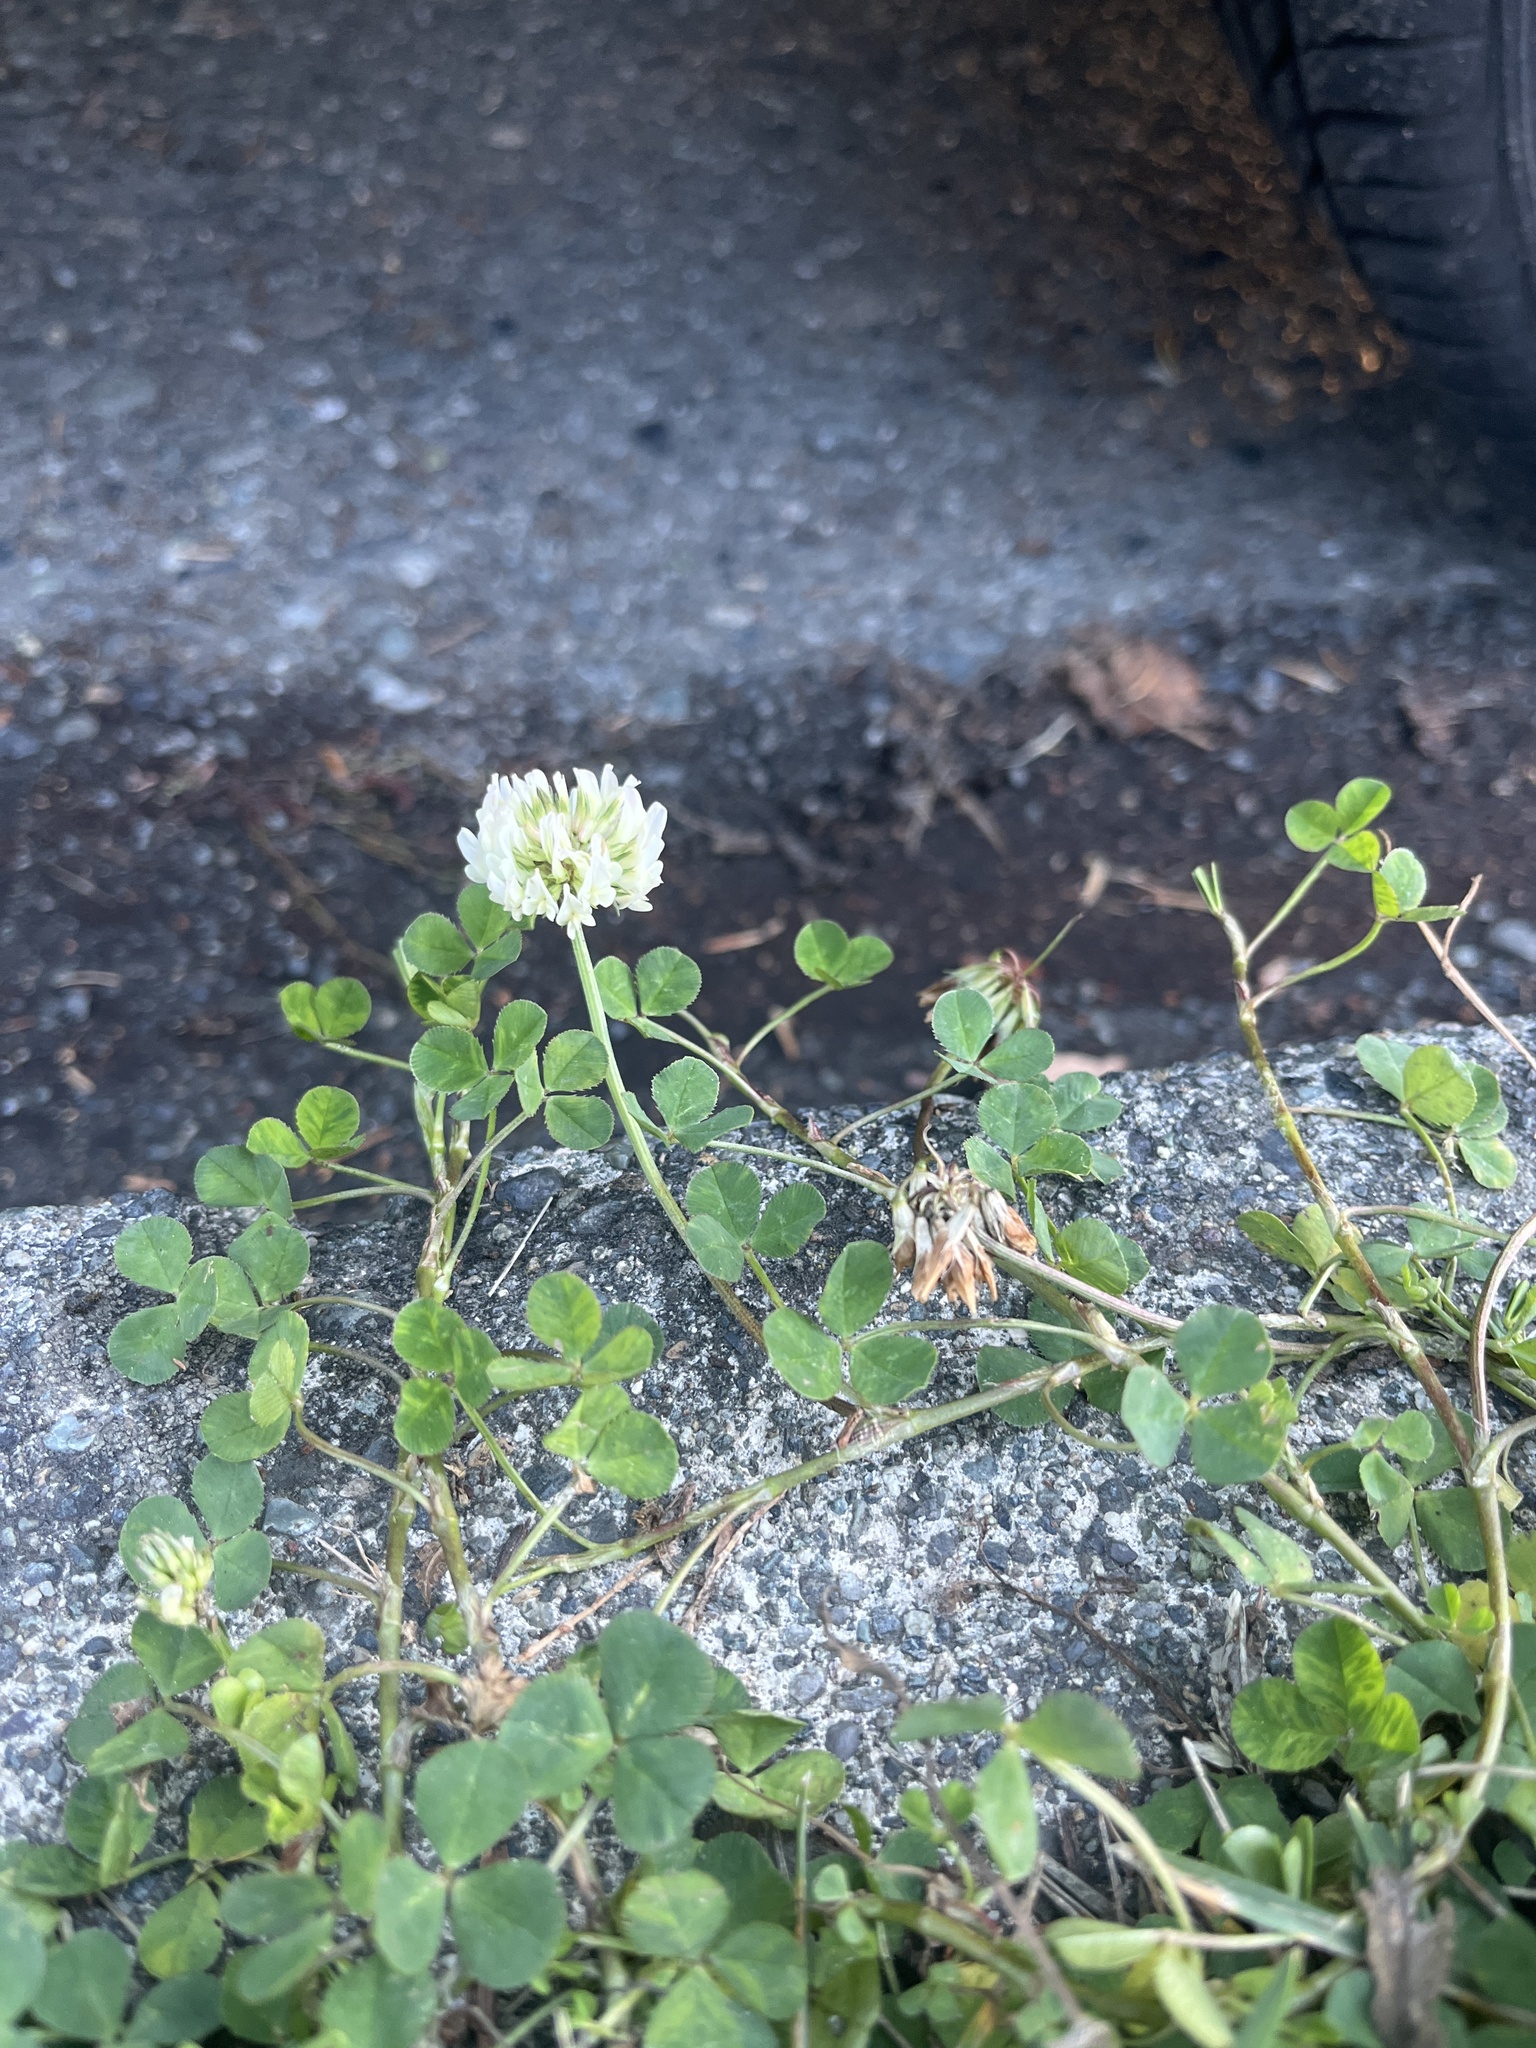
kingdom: Plantae
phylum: Tracheophyta
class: Magnoliopsida
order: Fabales
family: Fabaceae
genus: Trifolium
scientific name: Trifolium repens
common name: White clover
